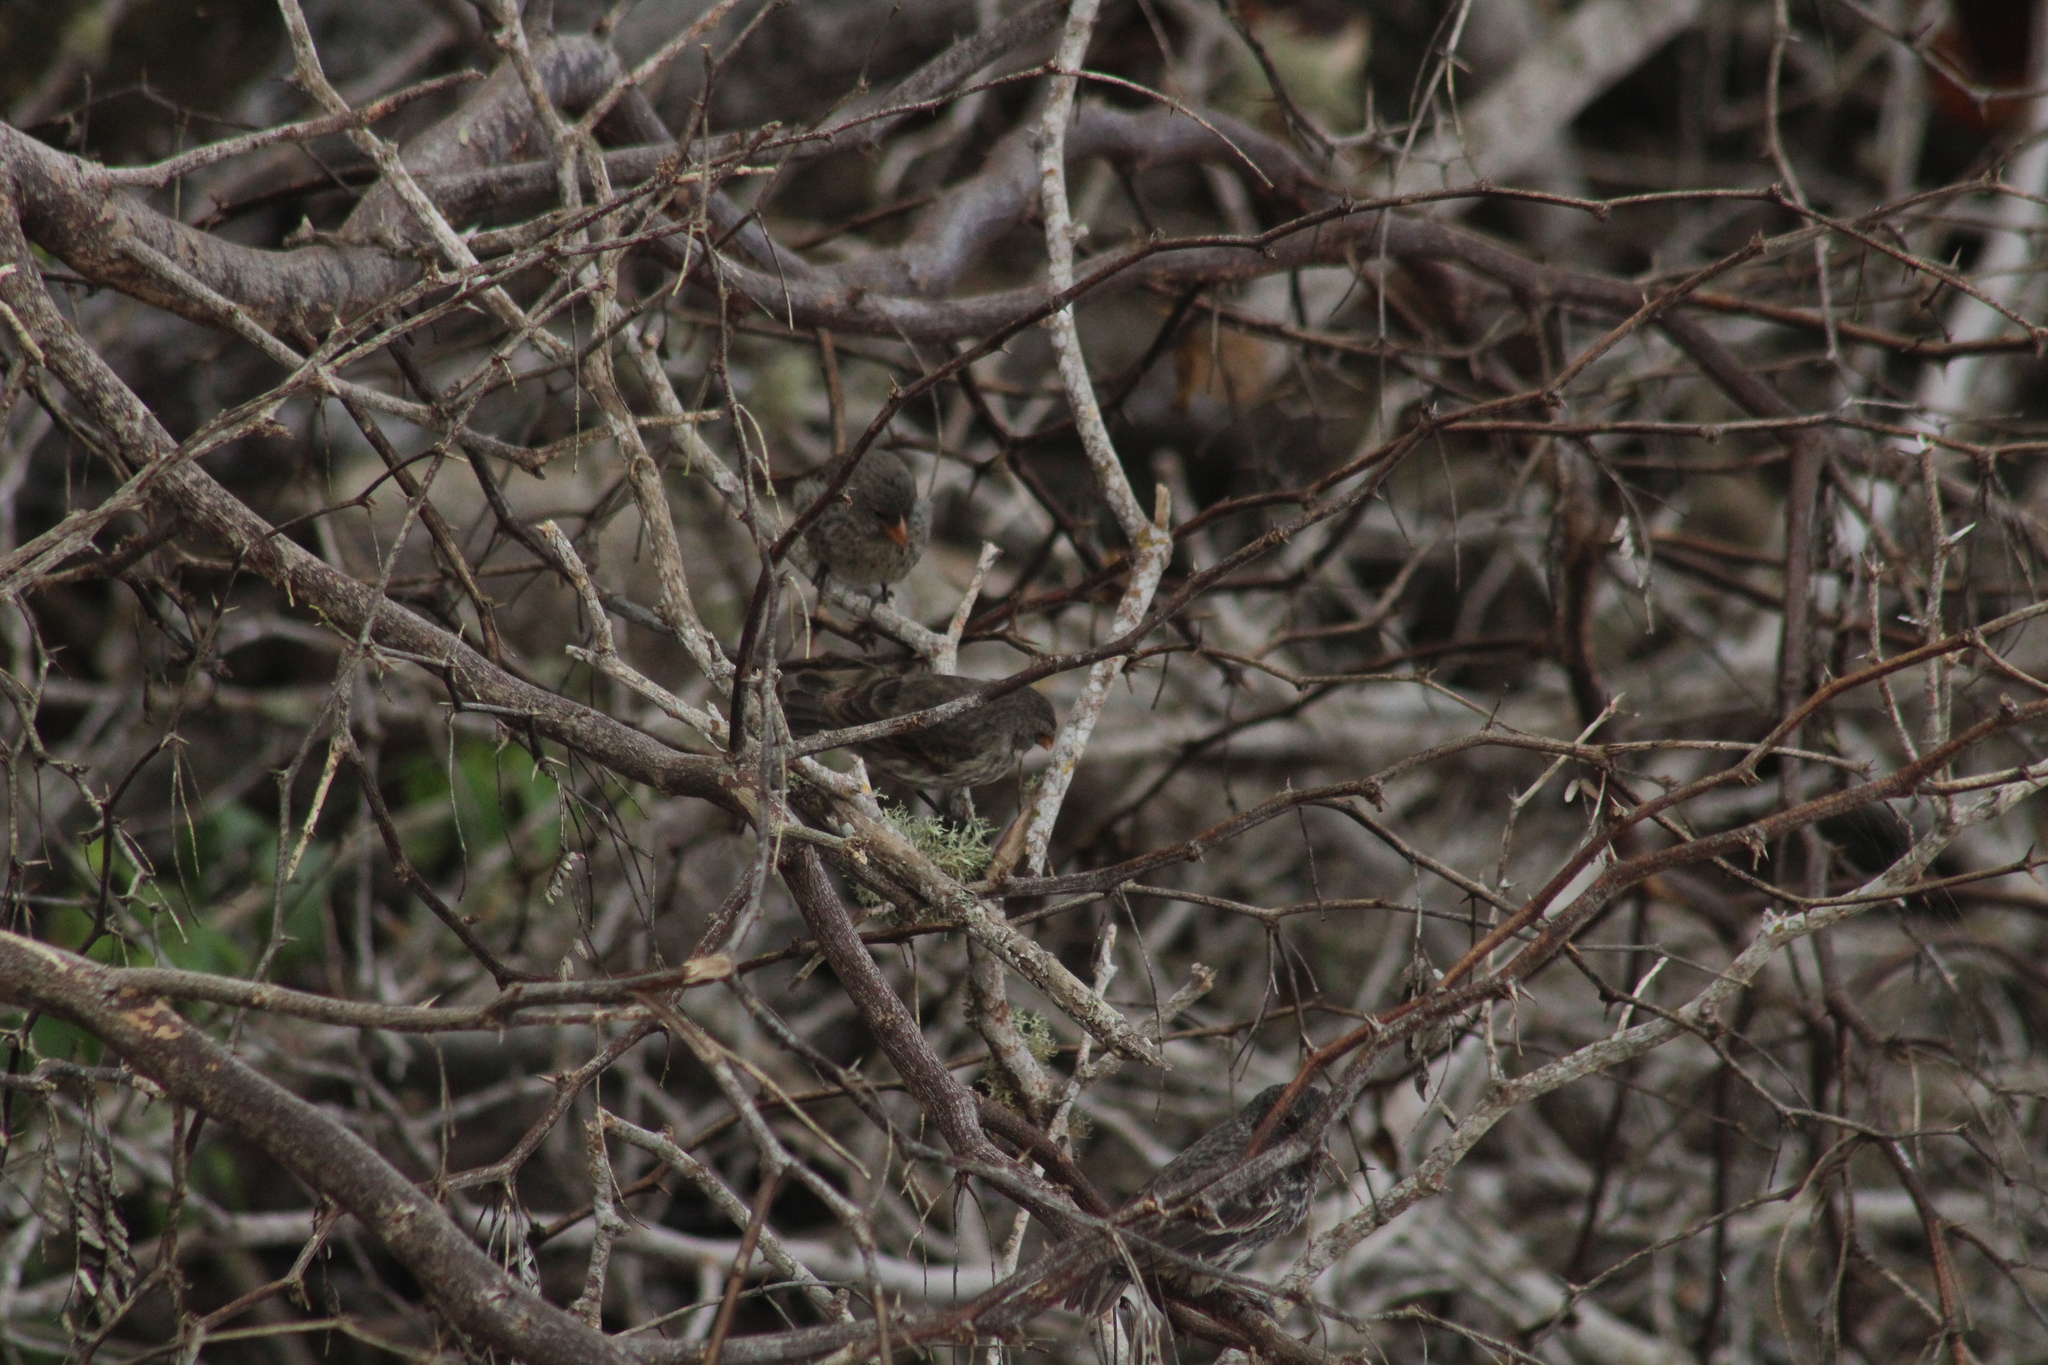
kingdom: Animalia
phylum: Chordata
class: Aves
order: Passeriformes
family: Thraupidae
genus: Geospiza
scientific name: Geospiza fortis
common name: Medium ground finch
